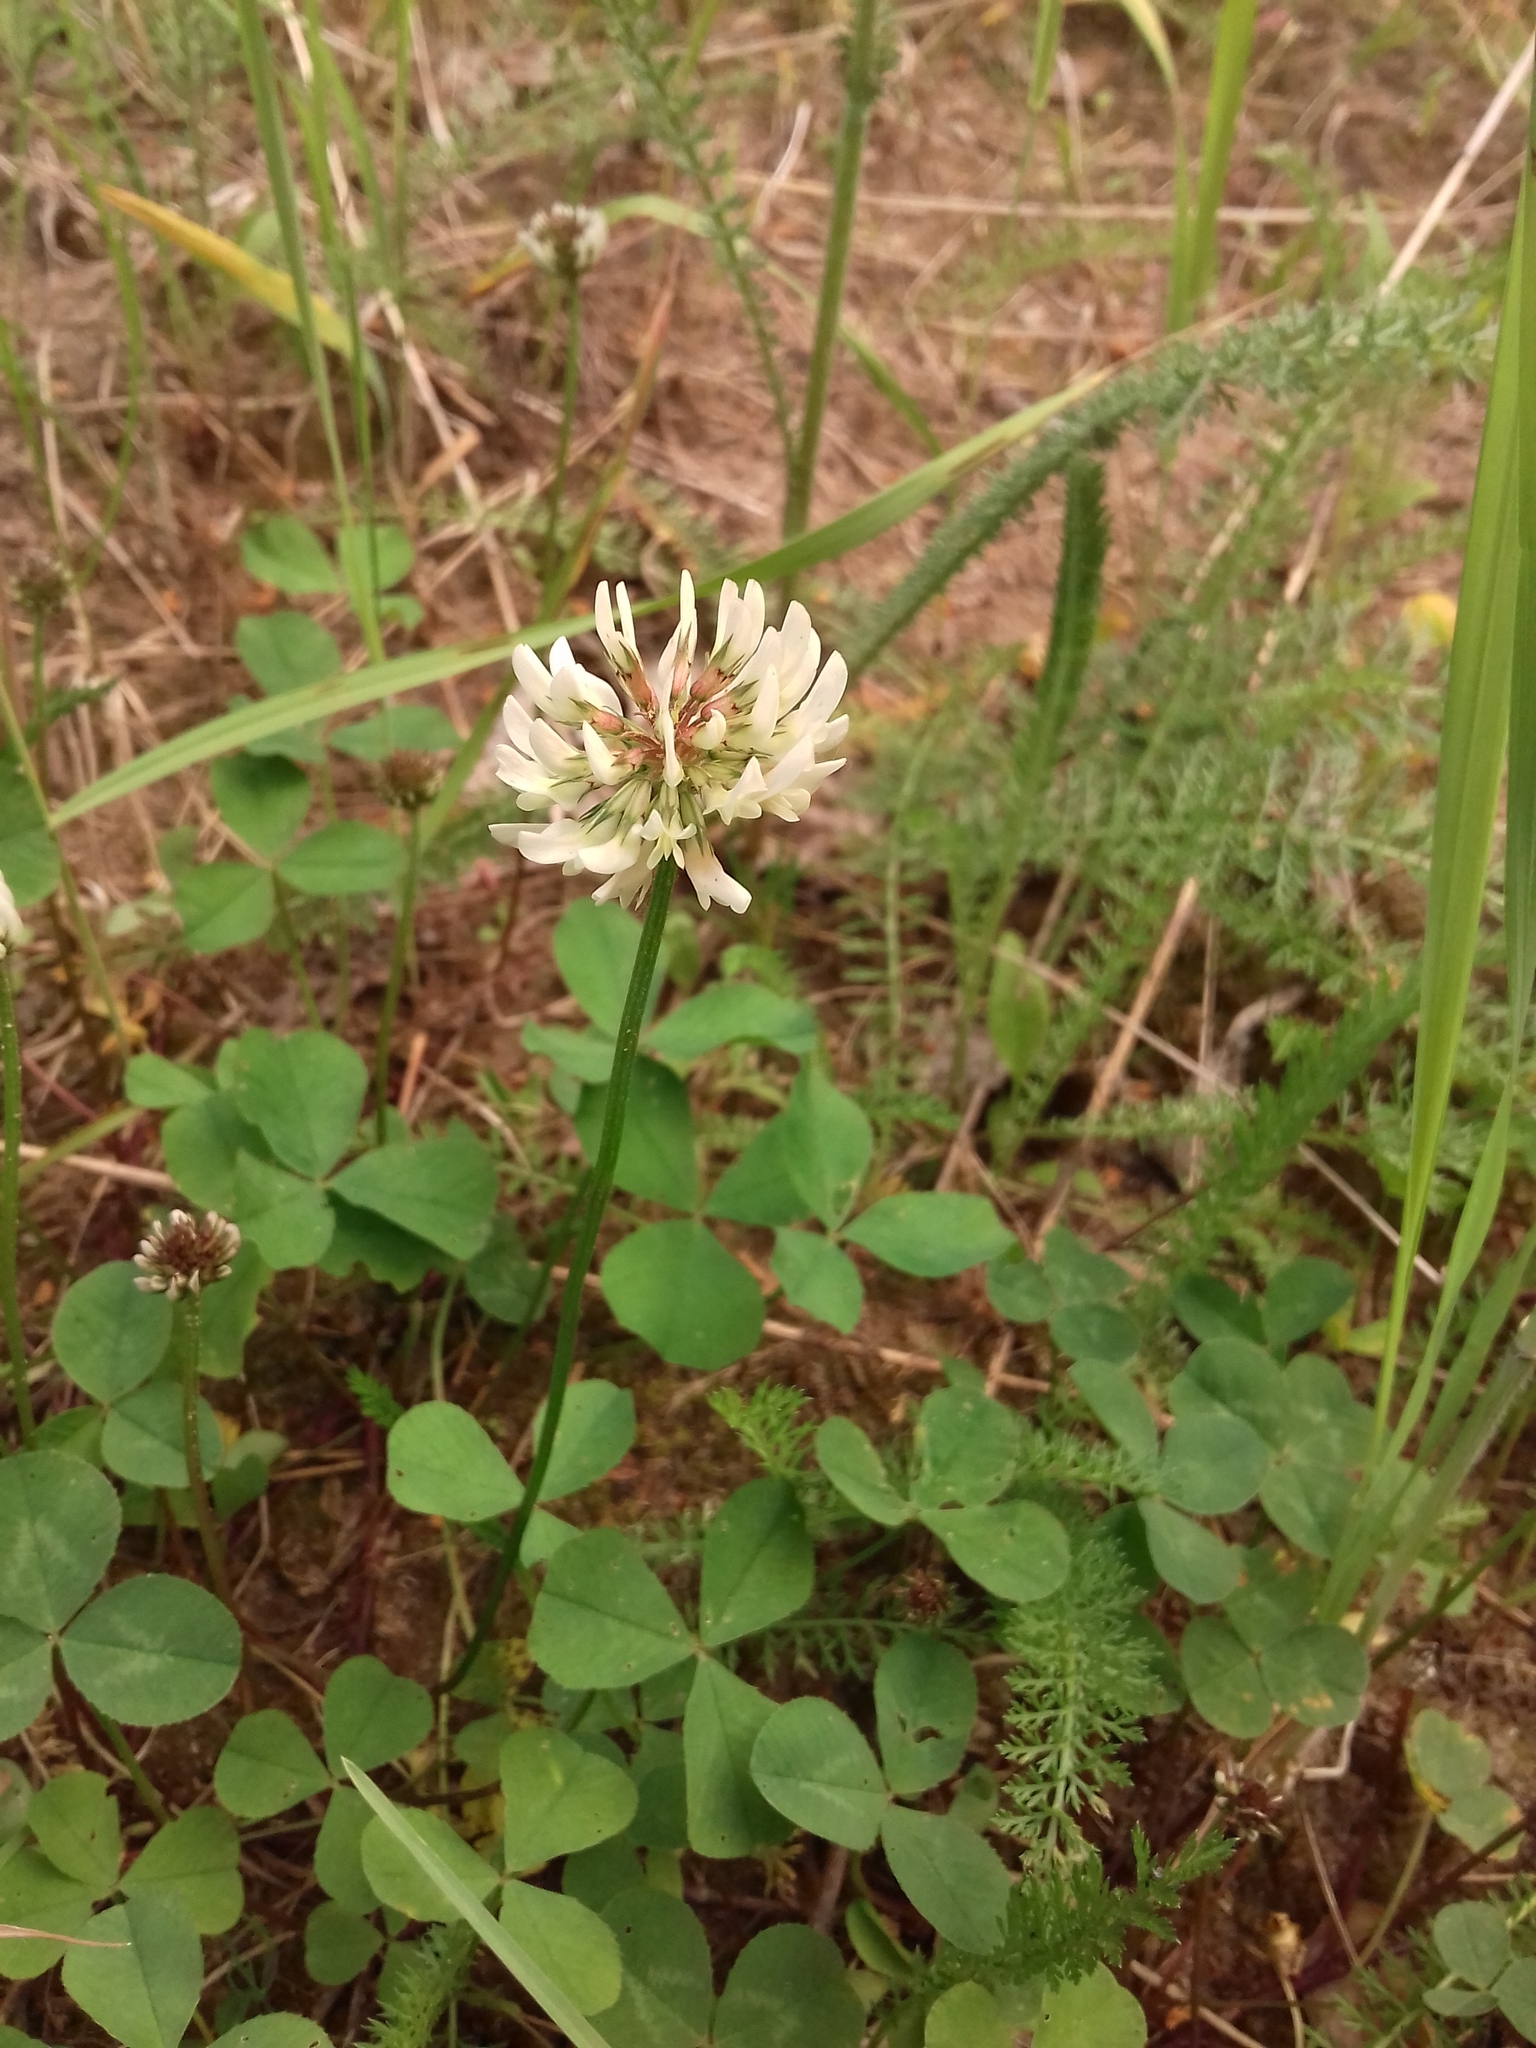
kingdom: Plantae
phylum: Tracheophyta
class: Magnoliopsida
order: Fabales
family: Fabaceae
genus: Trifolium
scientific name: Trifolium repens
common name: White clover
